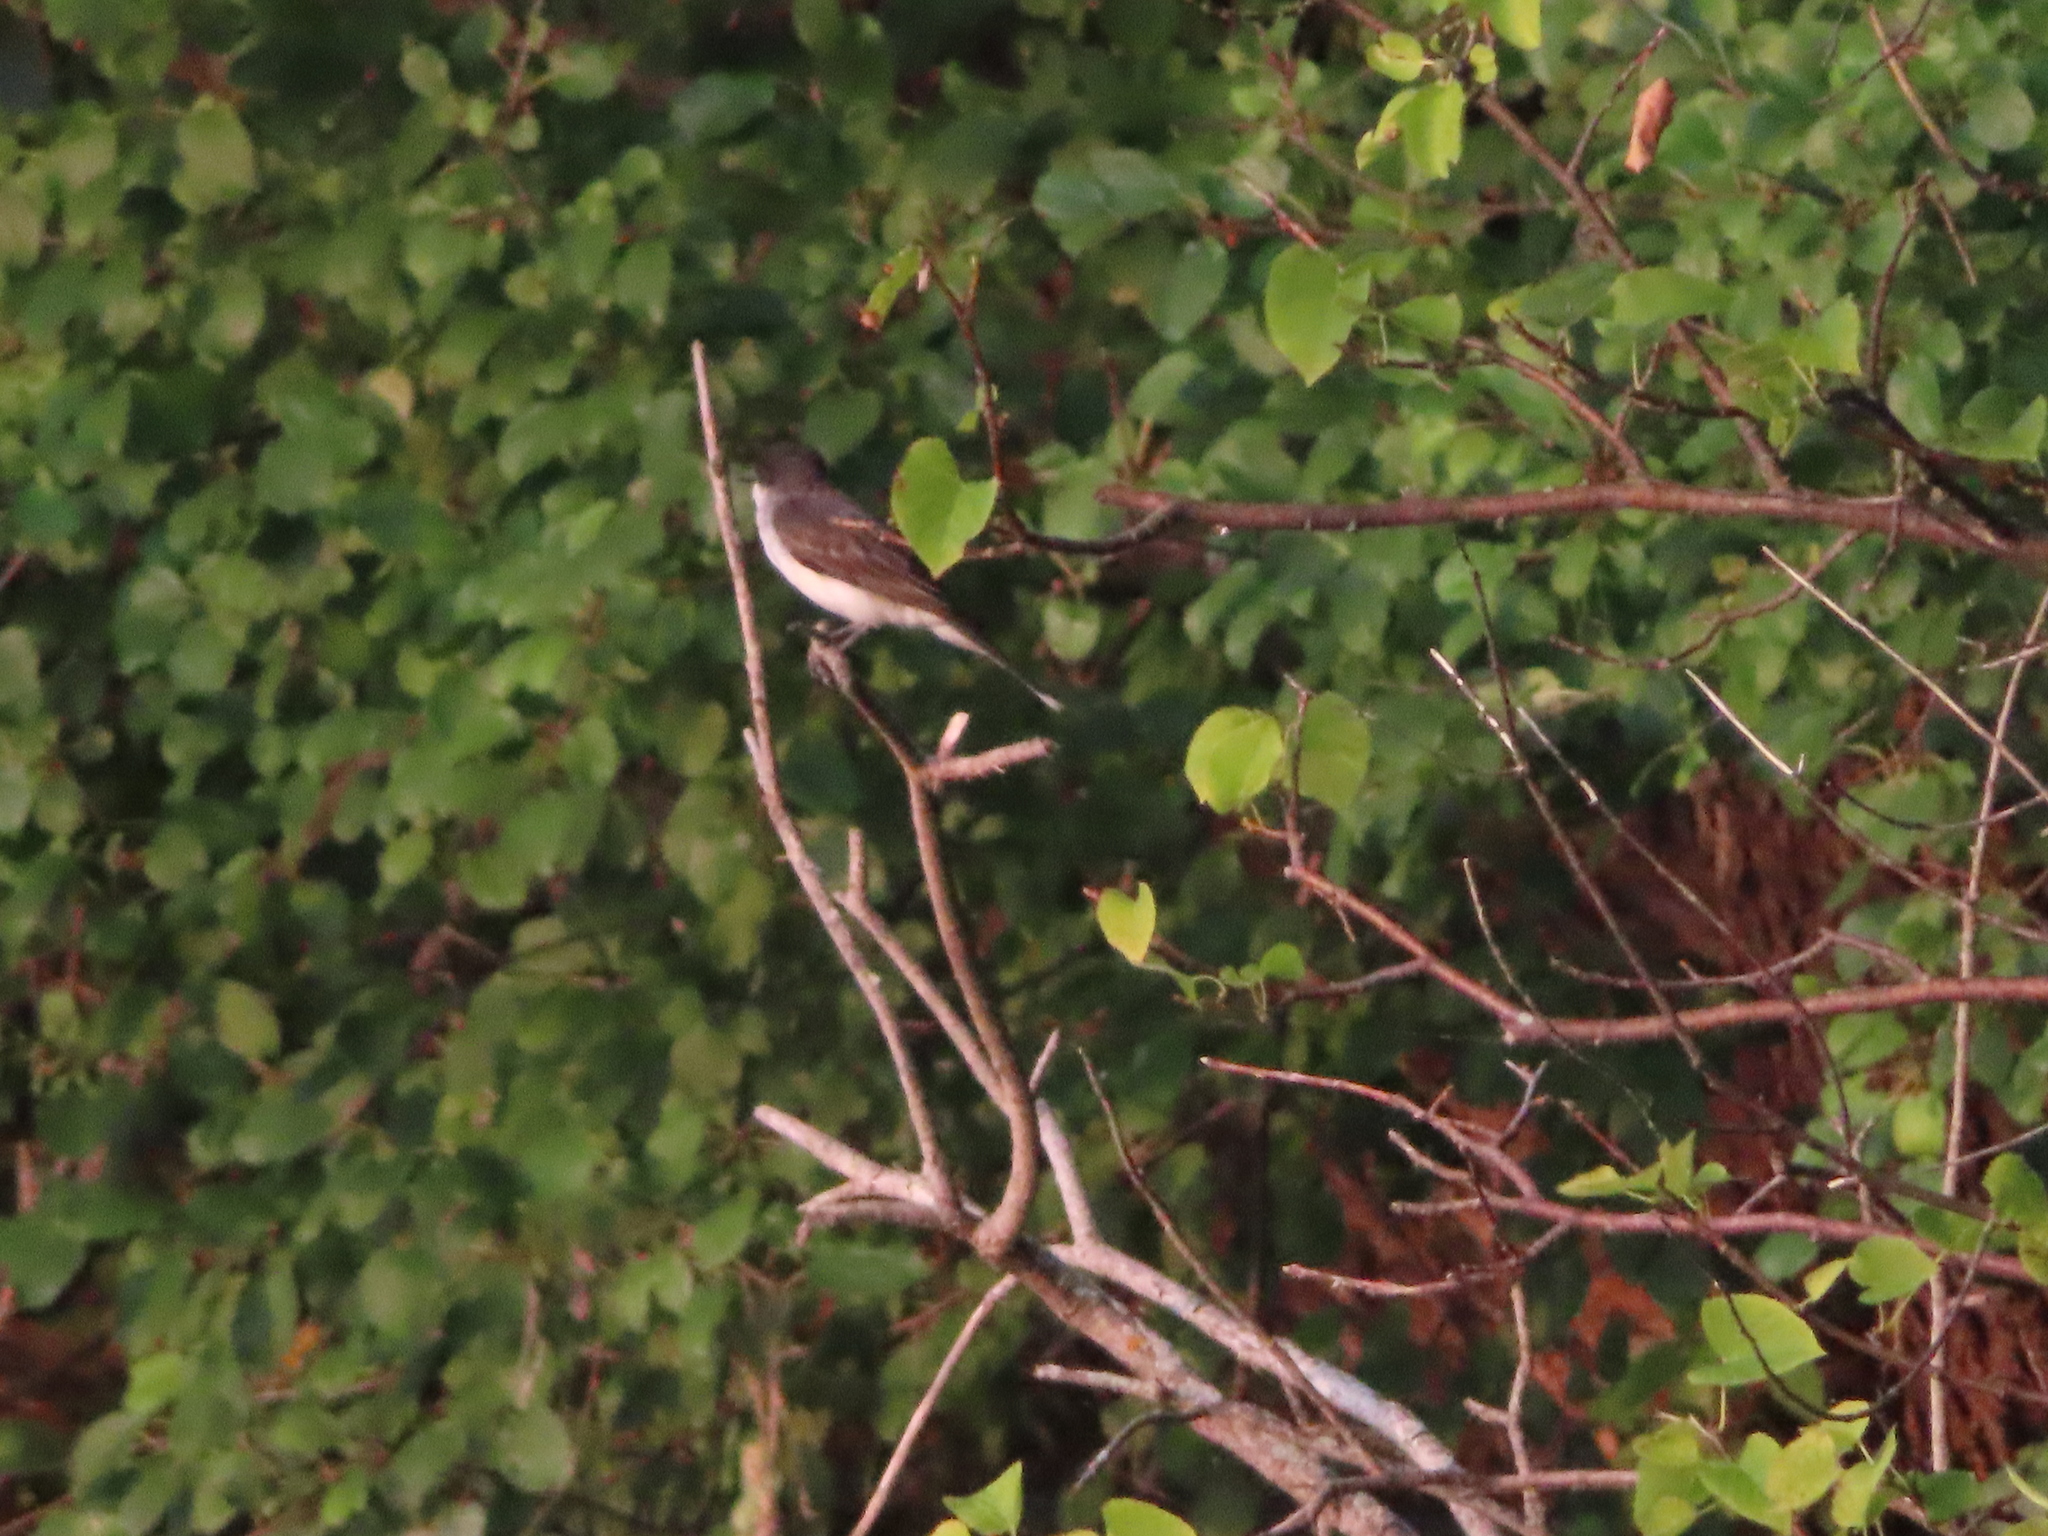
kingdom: Animalia
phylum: Chordata
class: Aves
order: Passeriformes
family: Tyrannidae
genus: Tyrannus
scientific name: Tyrannus tyrannus
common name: Eastern kingbird
